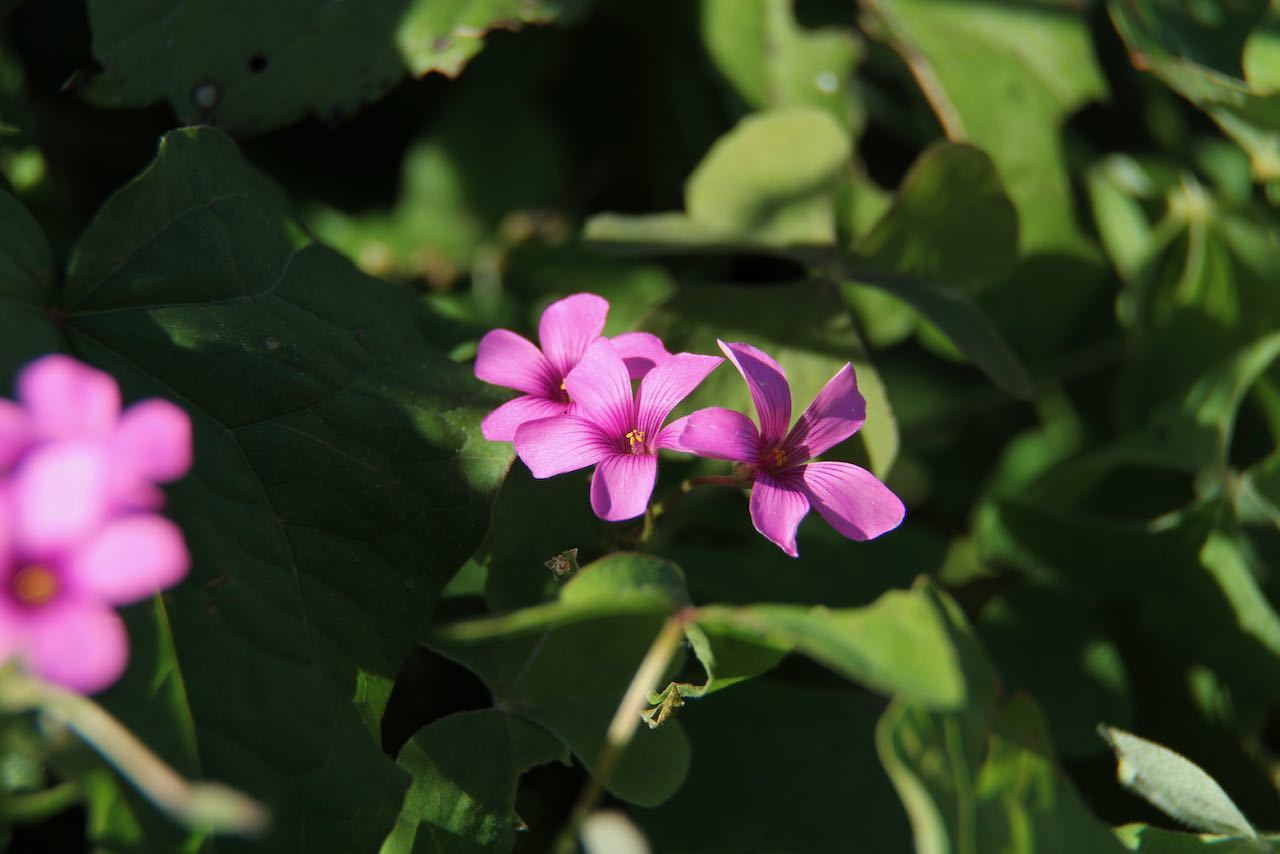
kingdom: Plantae
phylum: Tracheophyta
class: Magnoliopsida
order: Oxalidales
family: Oxalidaceae
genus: Oxalis
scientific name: Oxalis articulata
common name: Pink-sorrel
